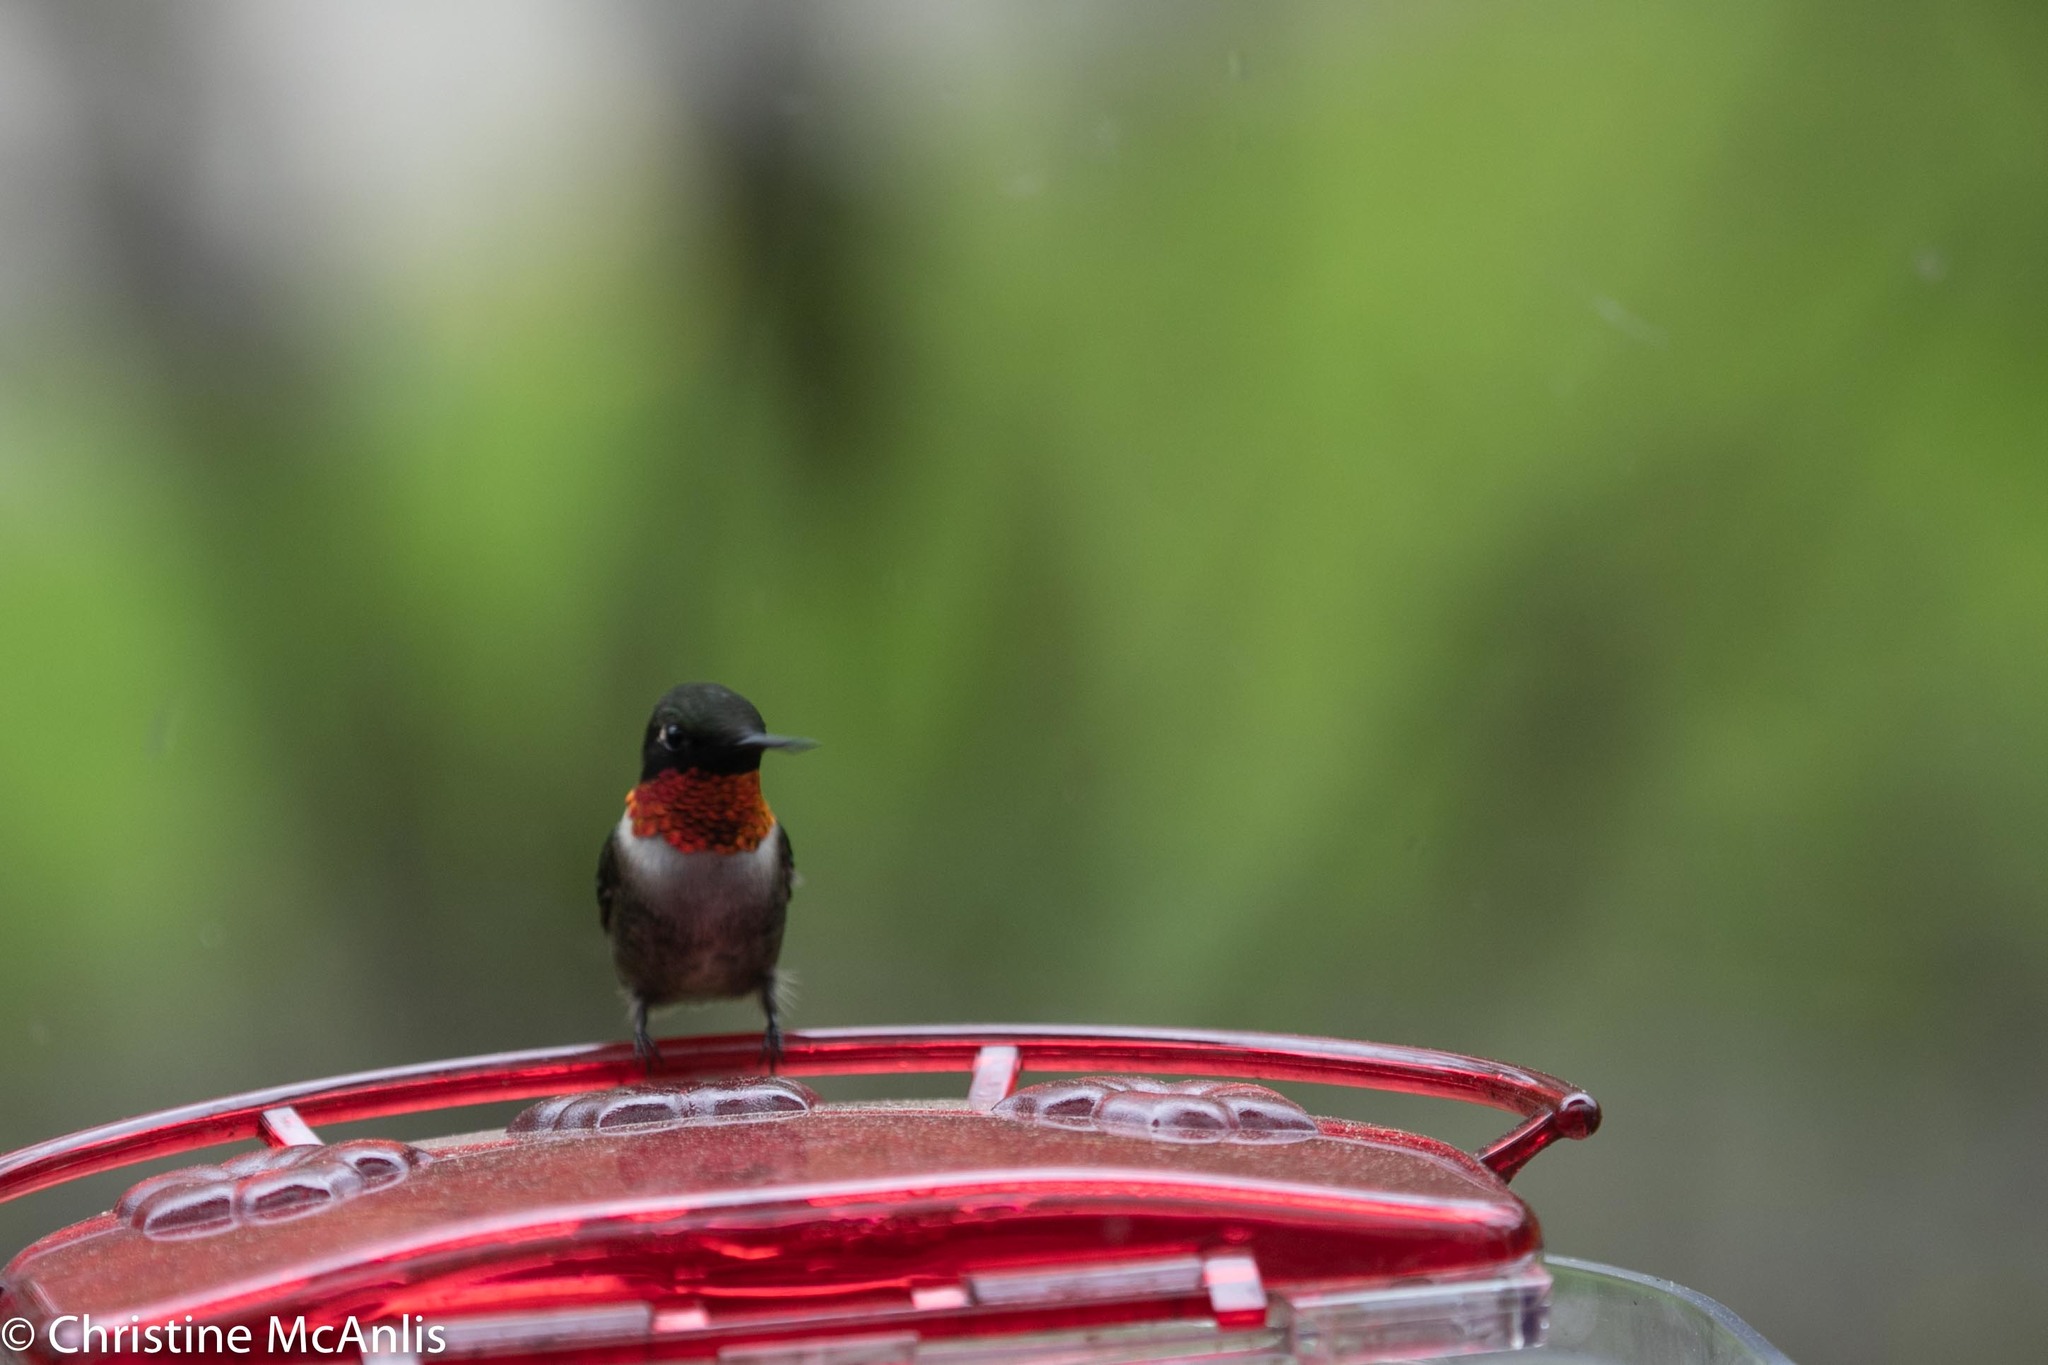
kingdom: Animalia
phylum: Chordata
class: Aves
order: Apodiformes
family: Trochilidae
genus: Archilochus
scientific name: Archilochus colubris
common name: Ruby-throated hummingbird
